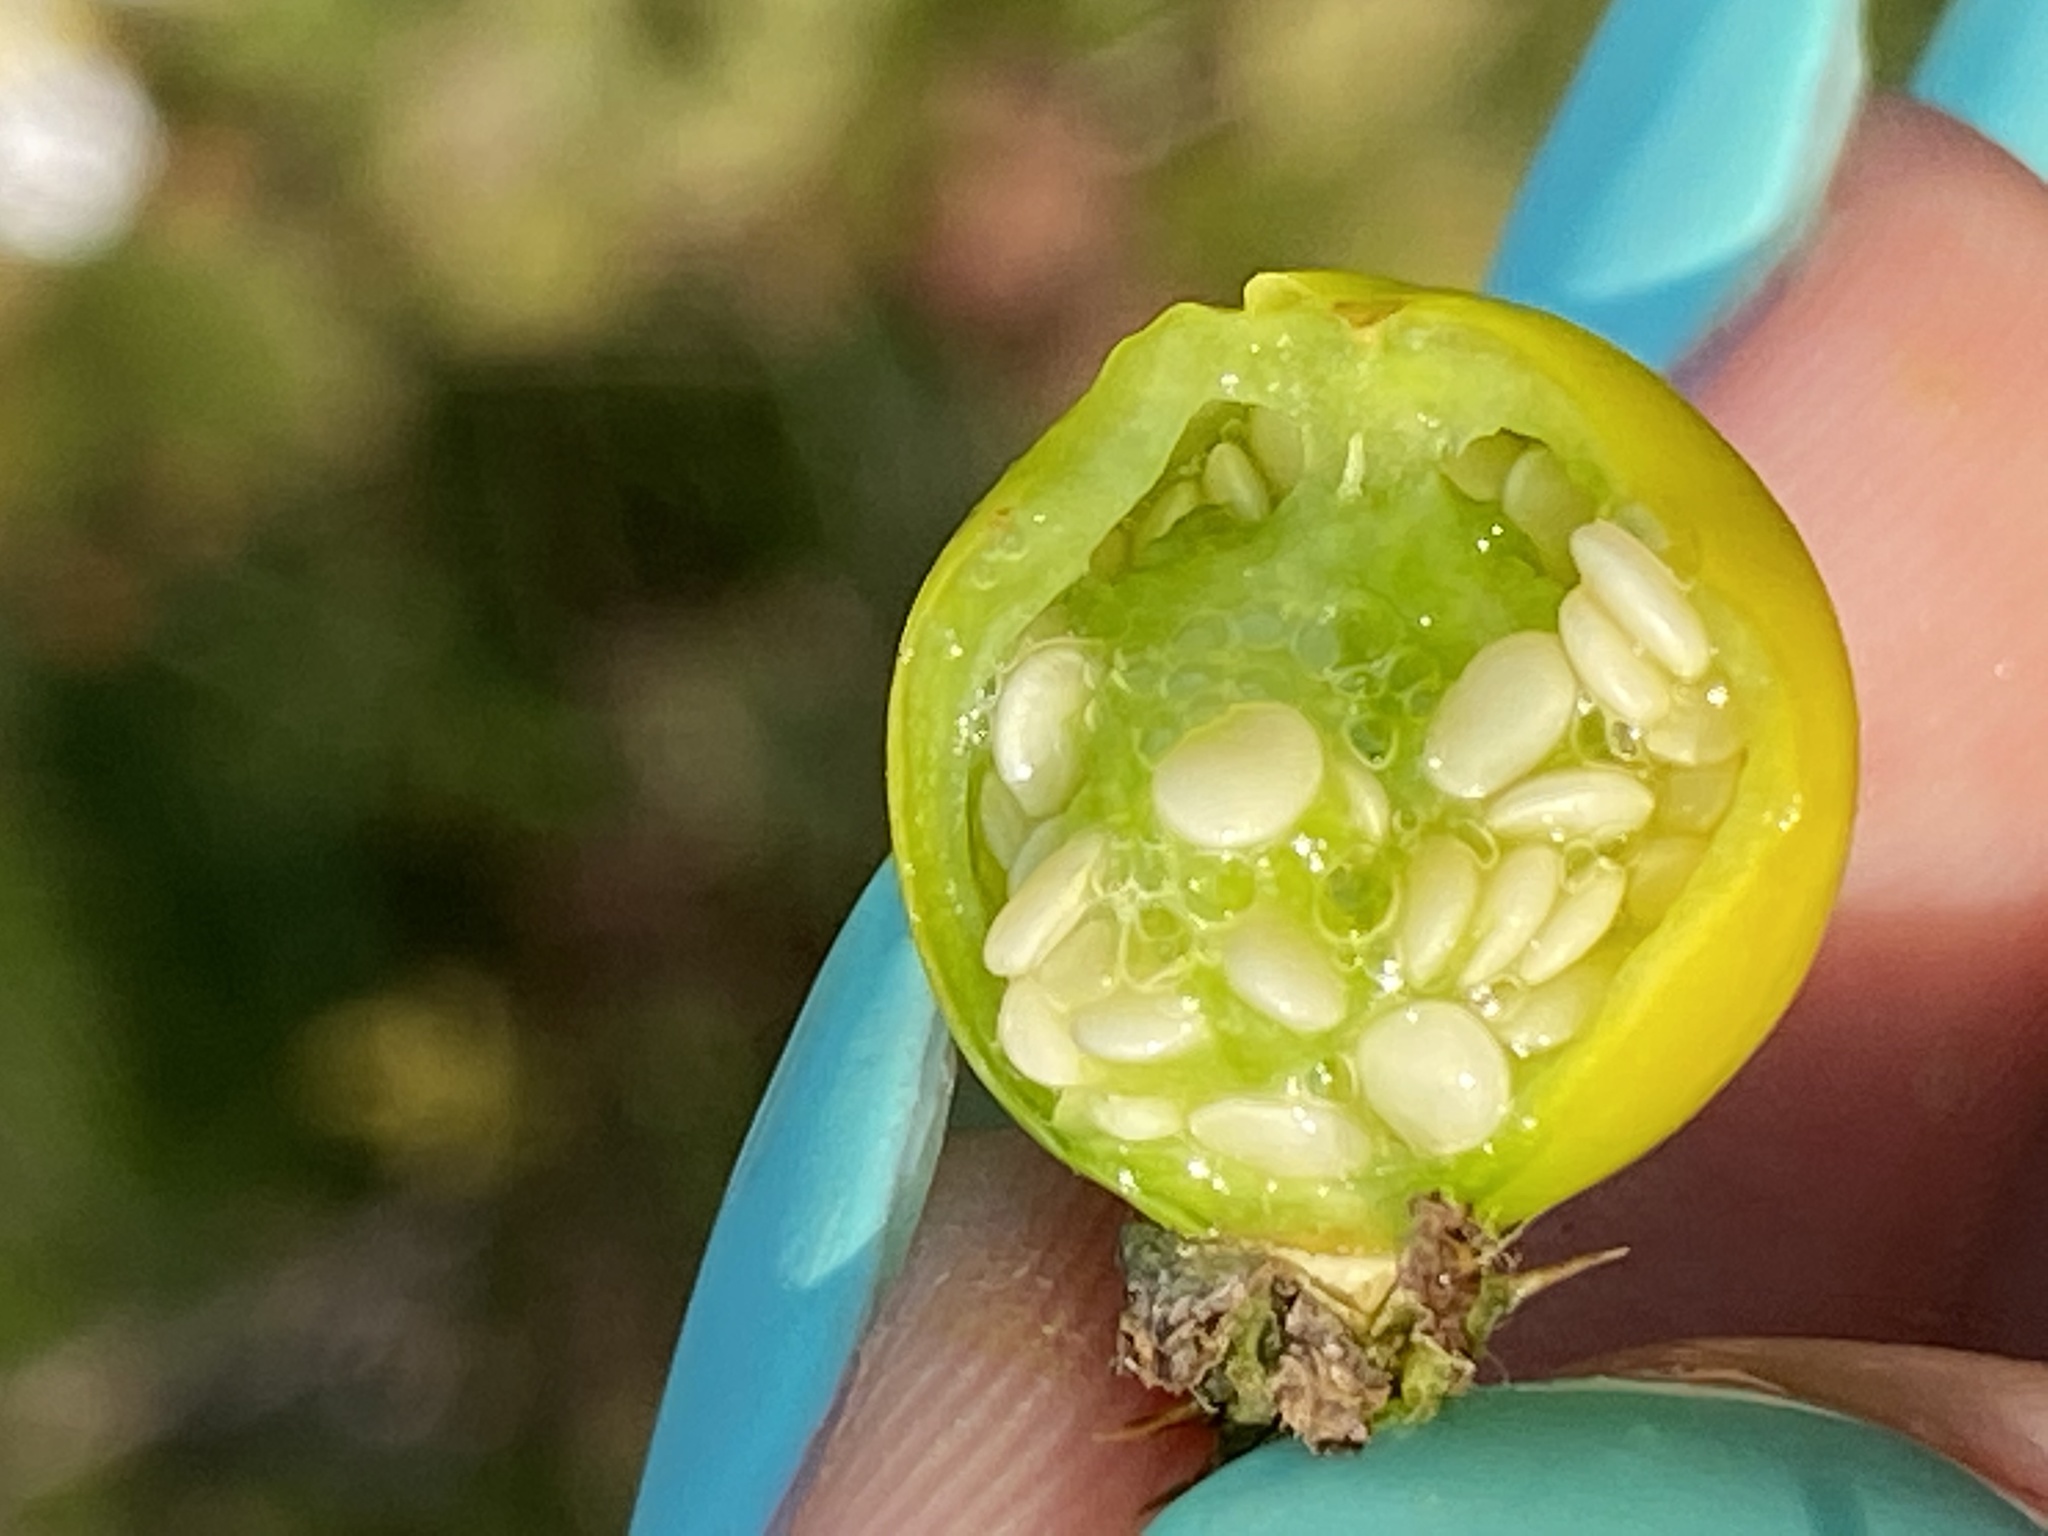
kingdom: Plantae
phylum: Tracheophyta
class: Magnoliopsida
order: Solanales
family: Solanaceae
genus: Solanum
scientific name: Solanum carolinense
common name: Horse-nettle
